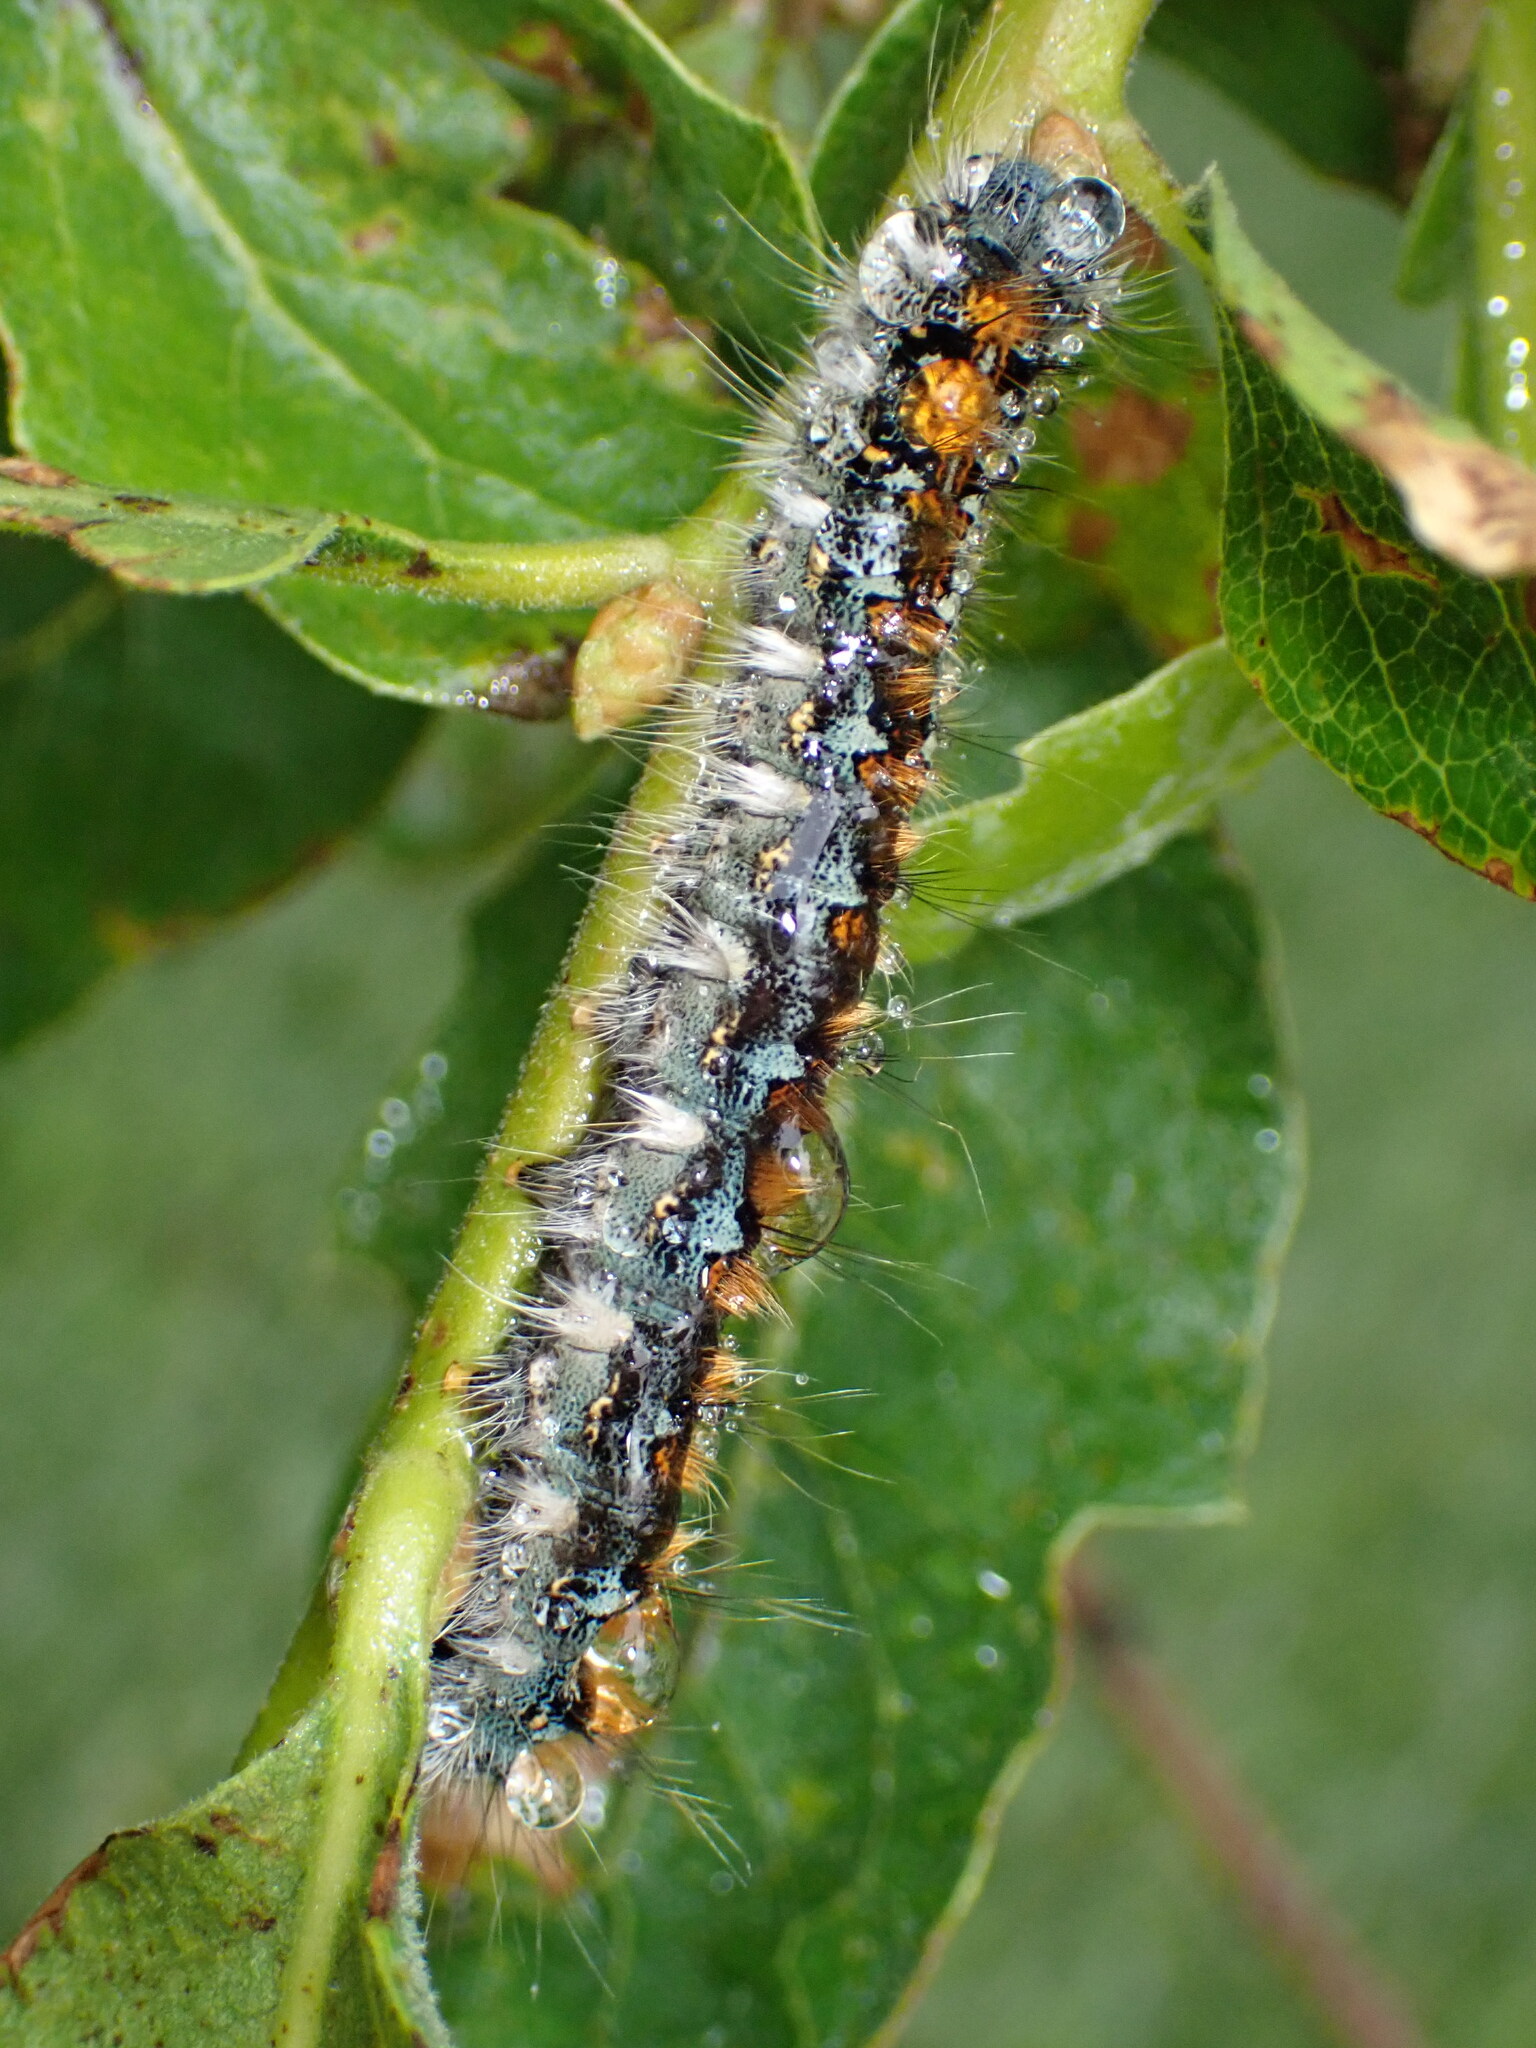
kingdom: Animalia
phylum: Arthropoda
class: Insecta
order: Lepidoptera
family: Lasiocampidae
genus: Malacosoma
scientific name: Malacosoma constricta
